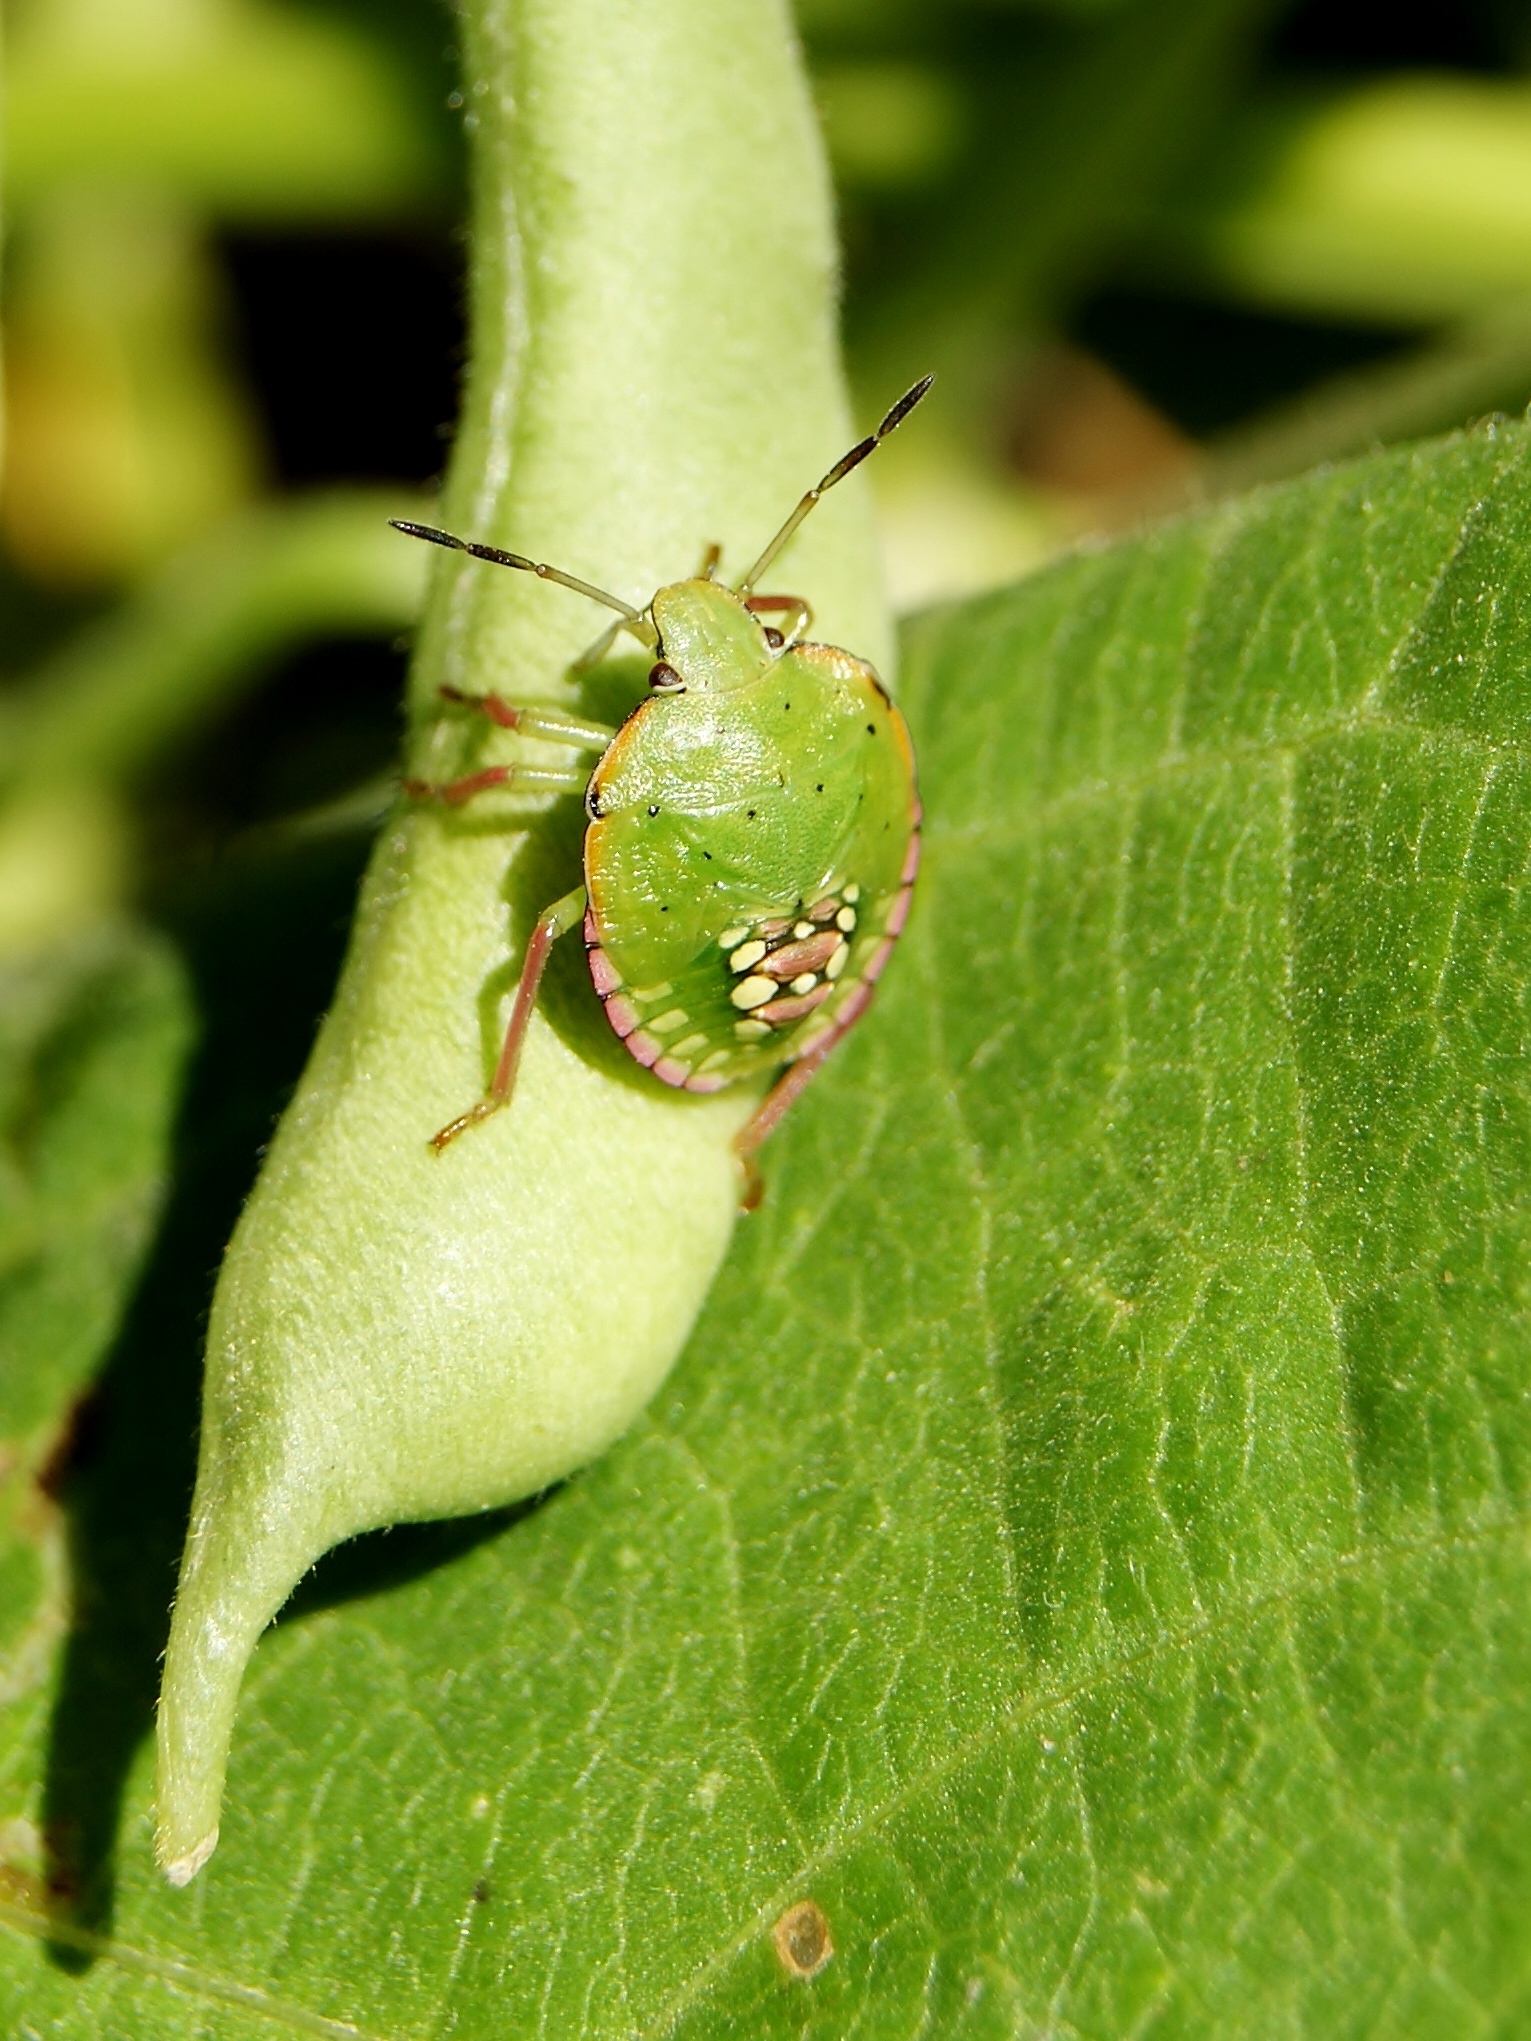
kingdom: Animalia
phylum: Arthropoda
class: Insecta
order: Hemiptera
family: Pentatomidae
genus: Nezara
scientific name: Nezara viridula
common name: Southern green stink bug
